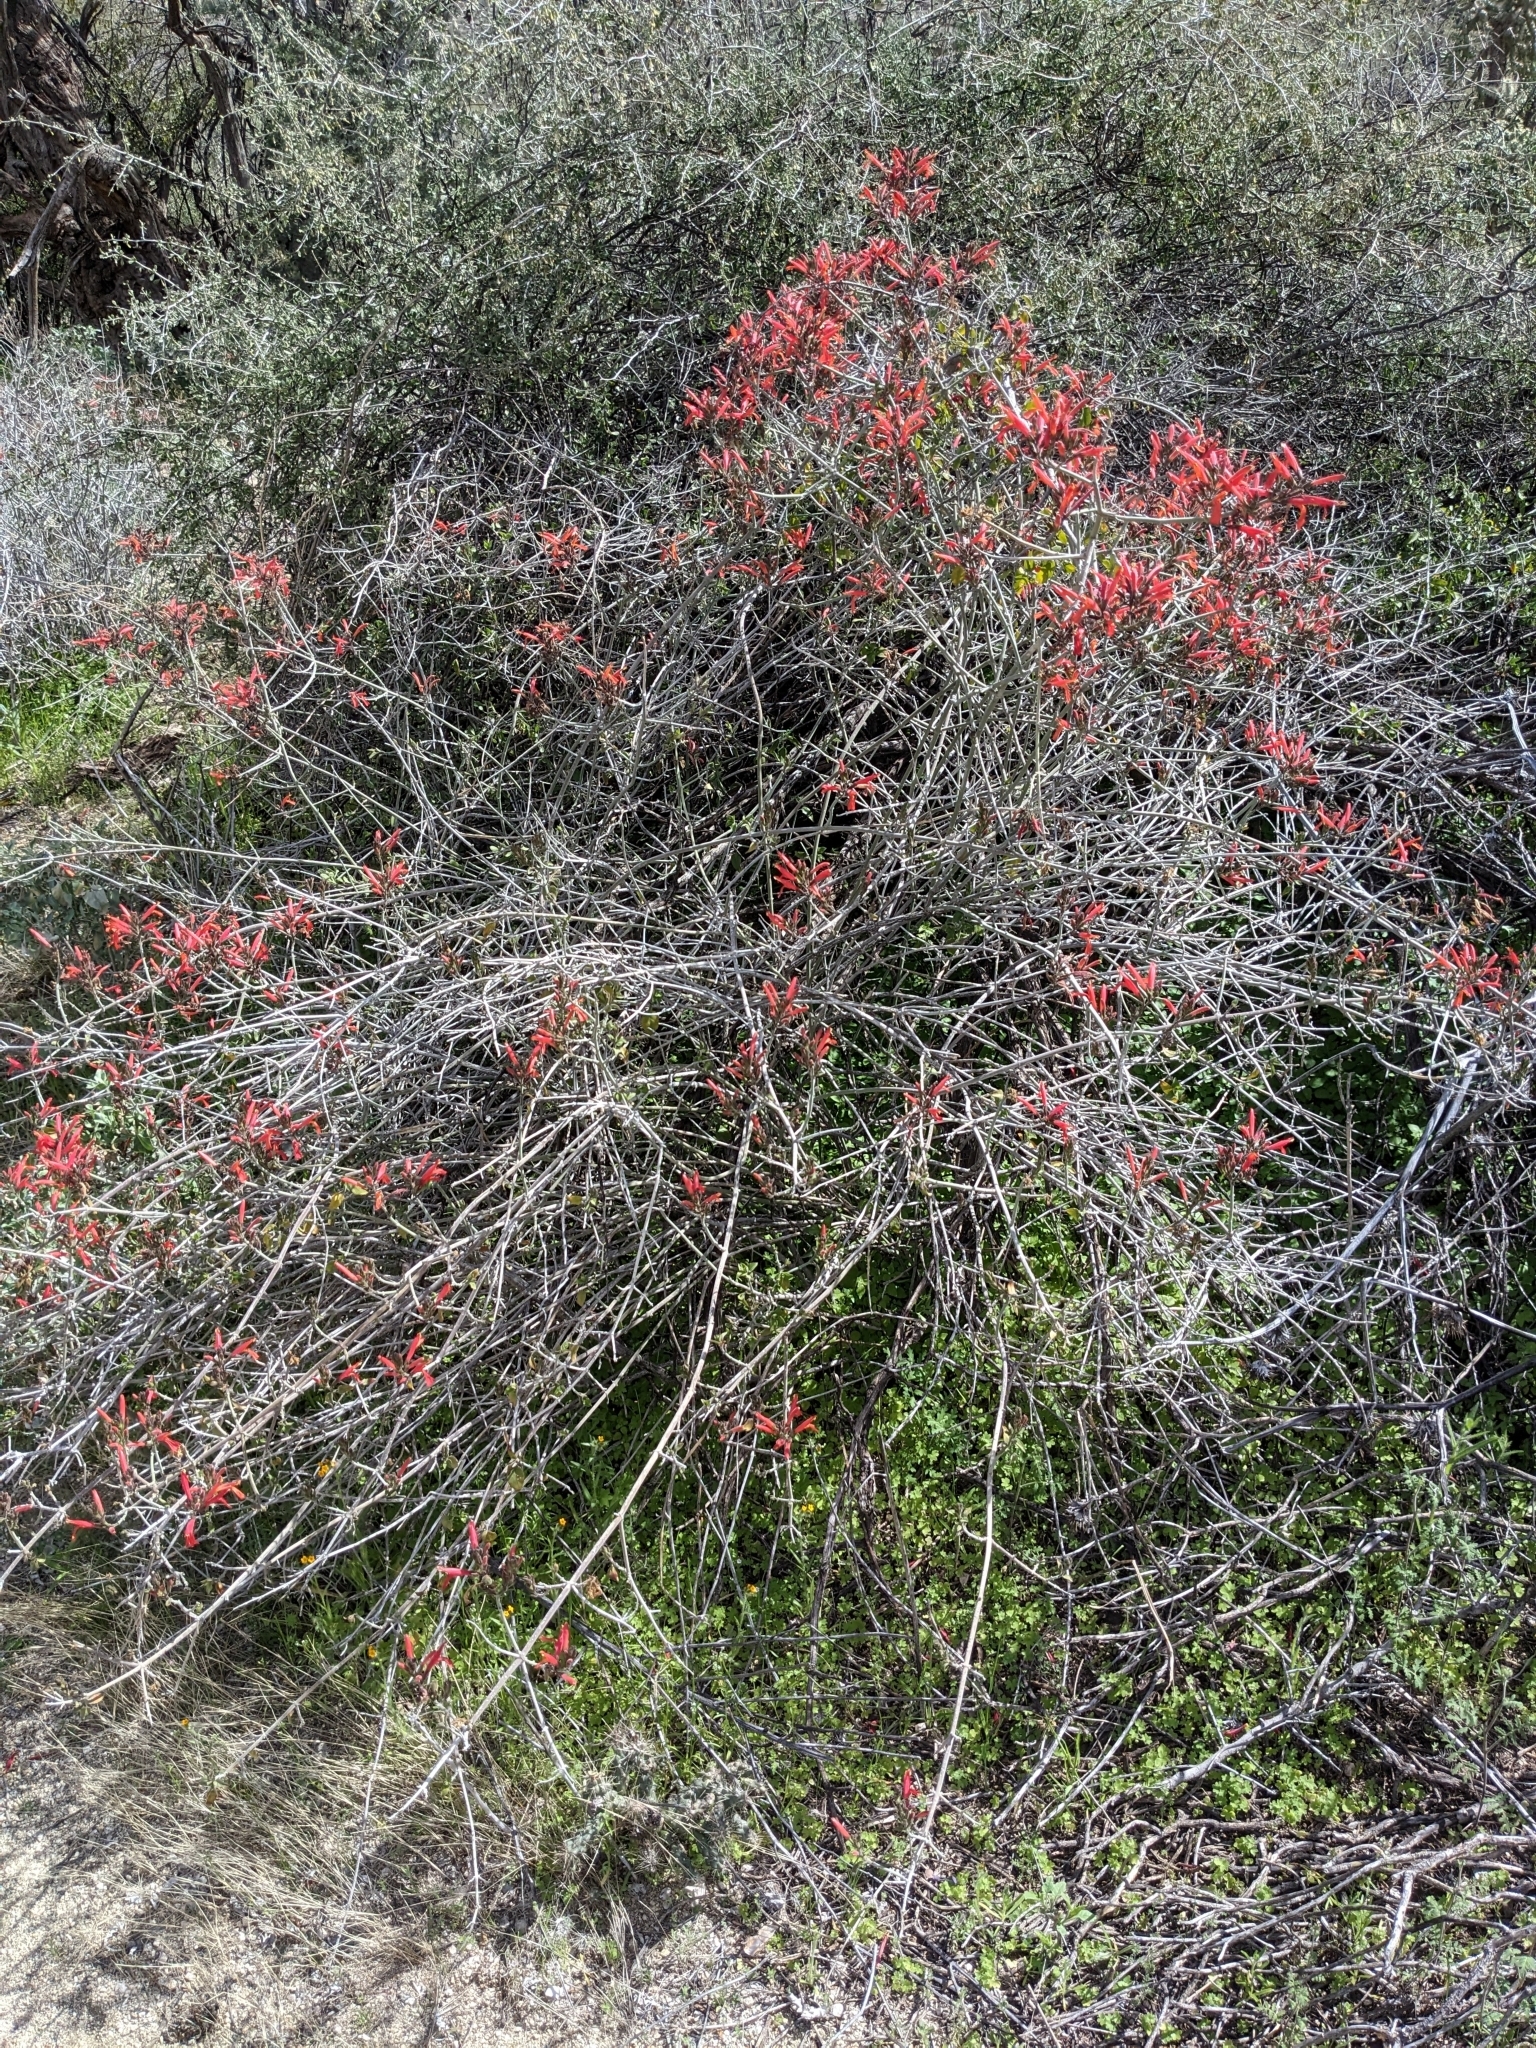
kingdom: Plantae
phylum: Tracheophyta
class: Magnoliopsida
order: Lamiales
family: Acanthaceae
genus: Justicia
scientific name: Justicia californica
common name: Chuparosa-honeysuckle
